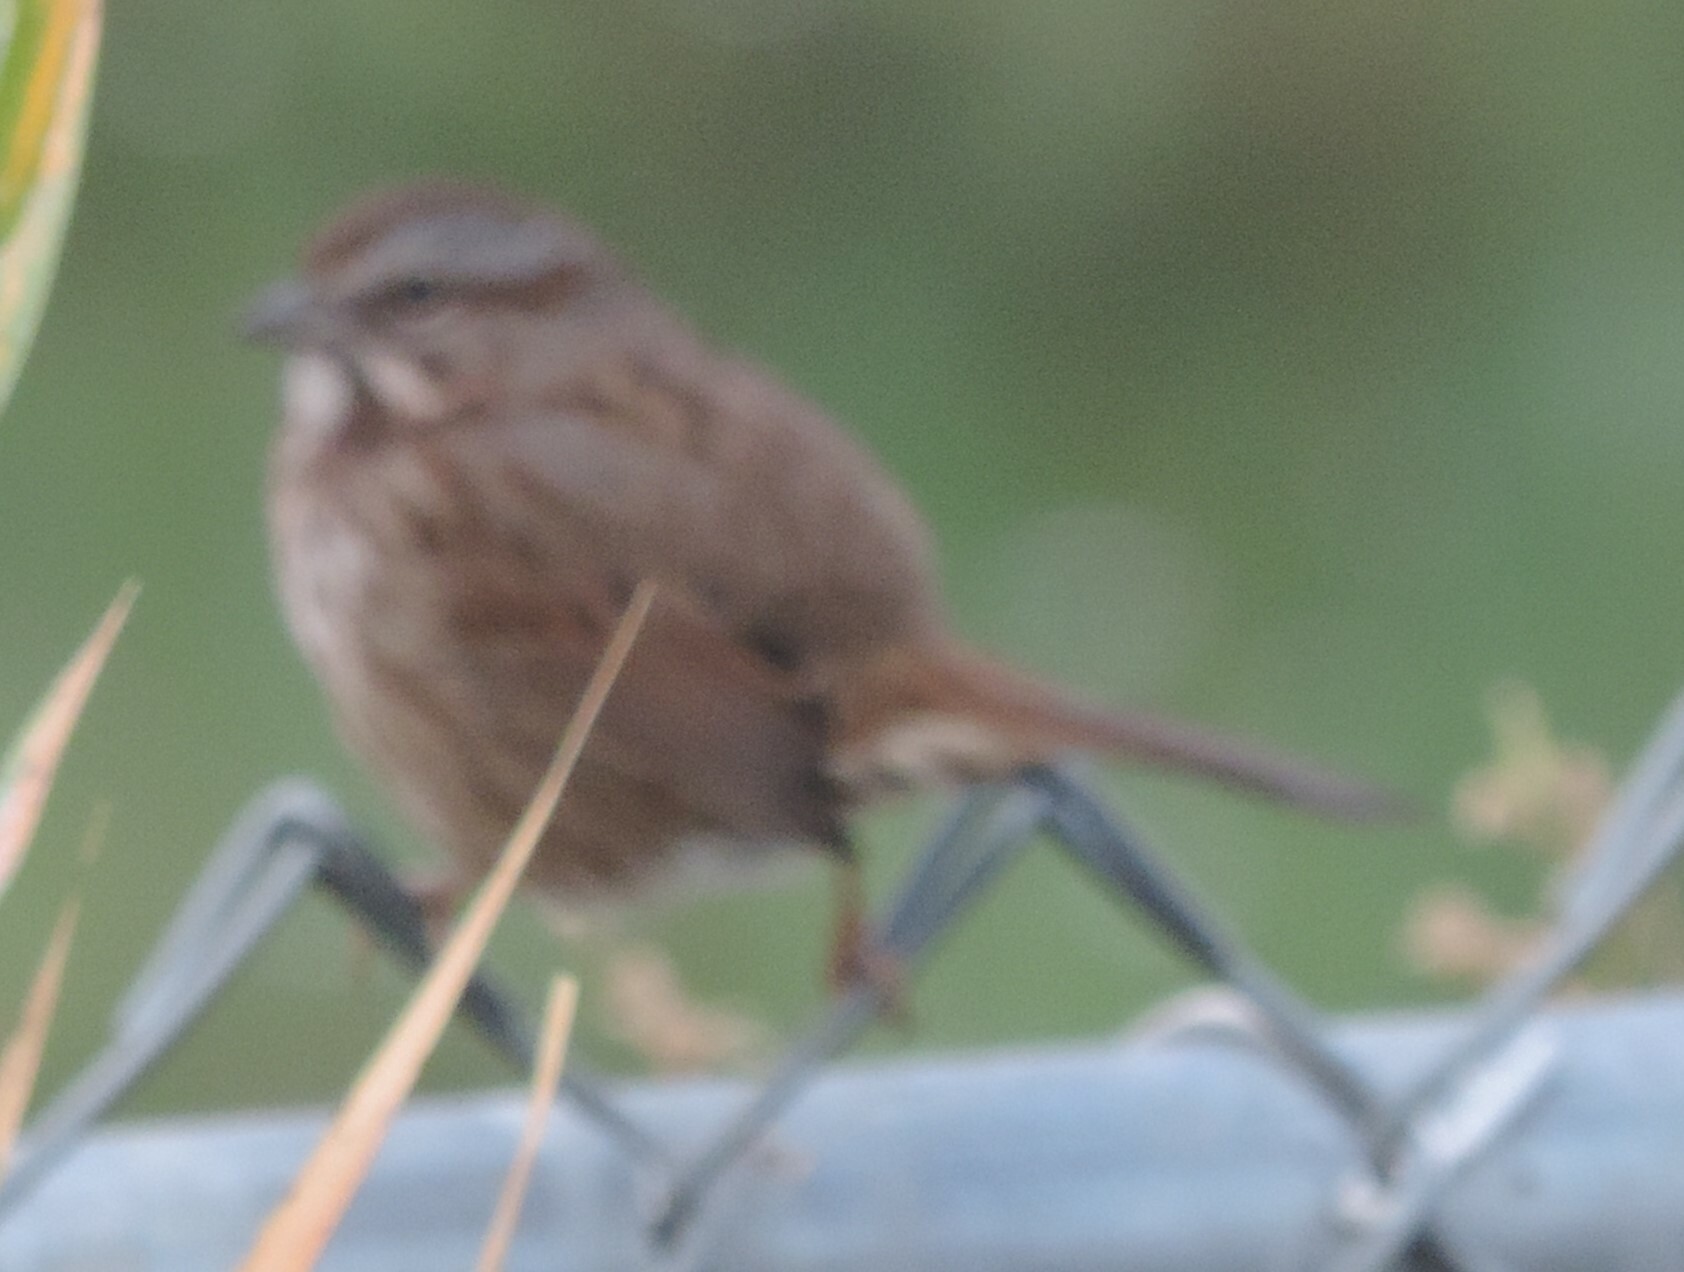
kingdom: Animalia
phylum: Chordata
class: Aves
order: Passeriformes
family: Passerellidae
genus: Melospiza
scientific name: Melospiza melodia
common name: Song sparrow
